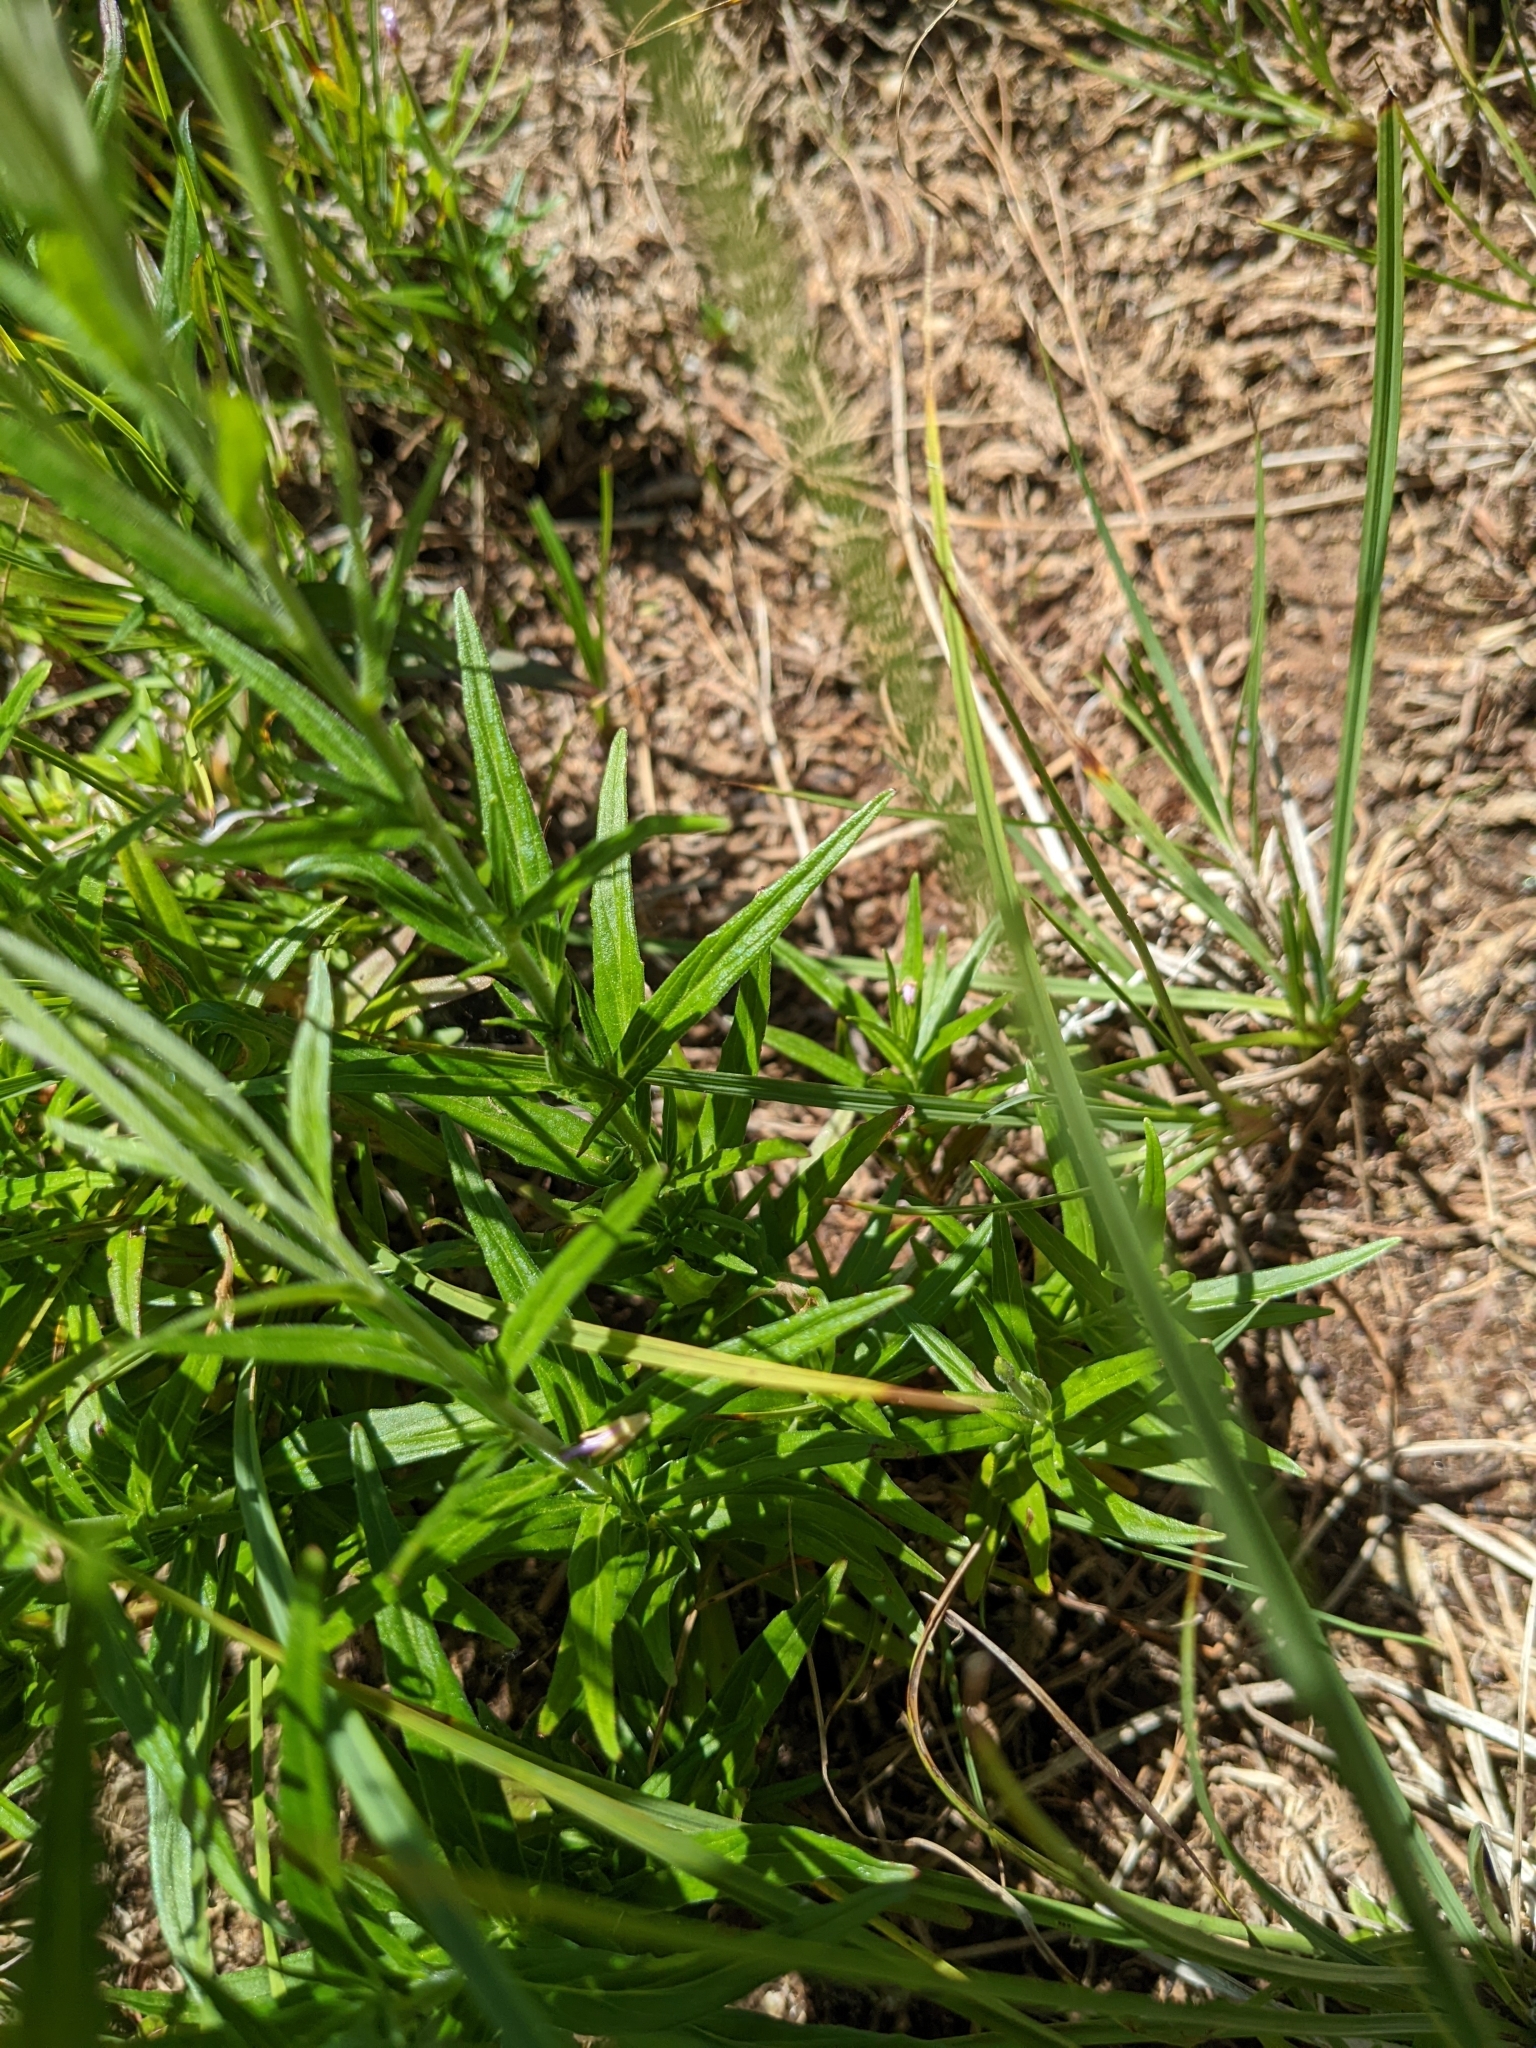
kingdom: Plantae
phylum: Tracheophyta
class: Magnoliopsida
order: Myrtales
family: Onagraceae
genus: Epilobium
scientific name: Epilobium palustre
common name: Marsh willowherb
